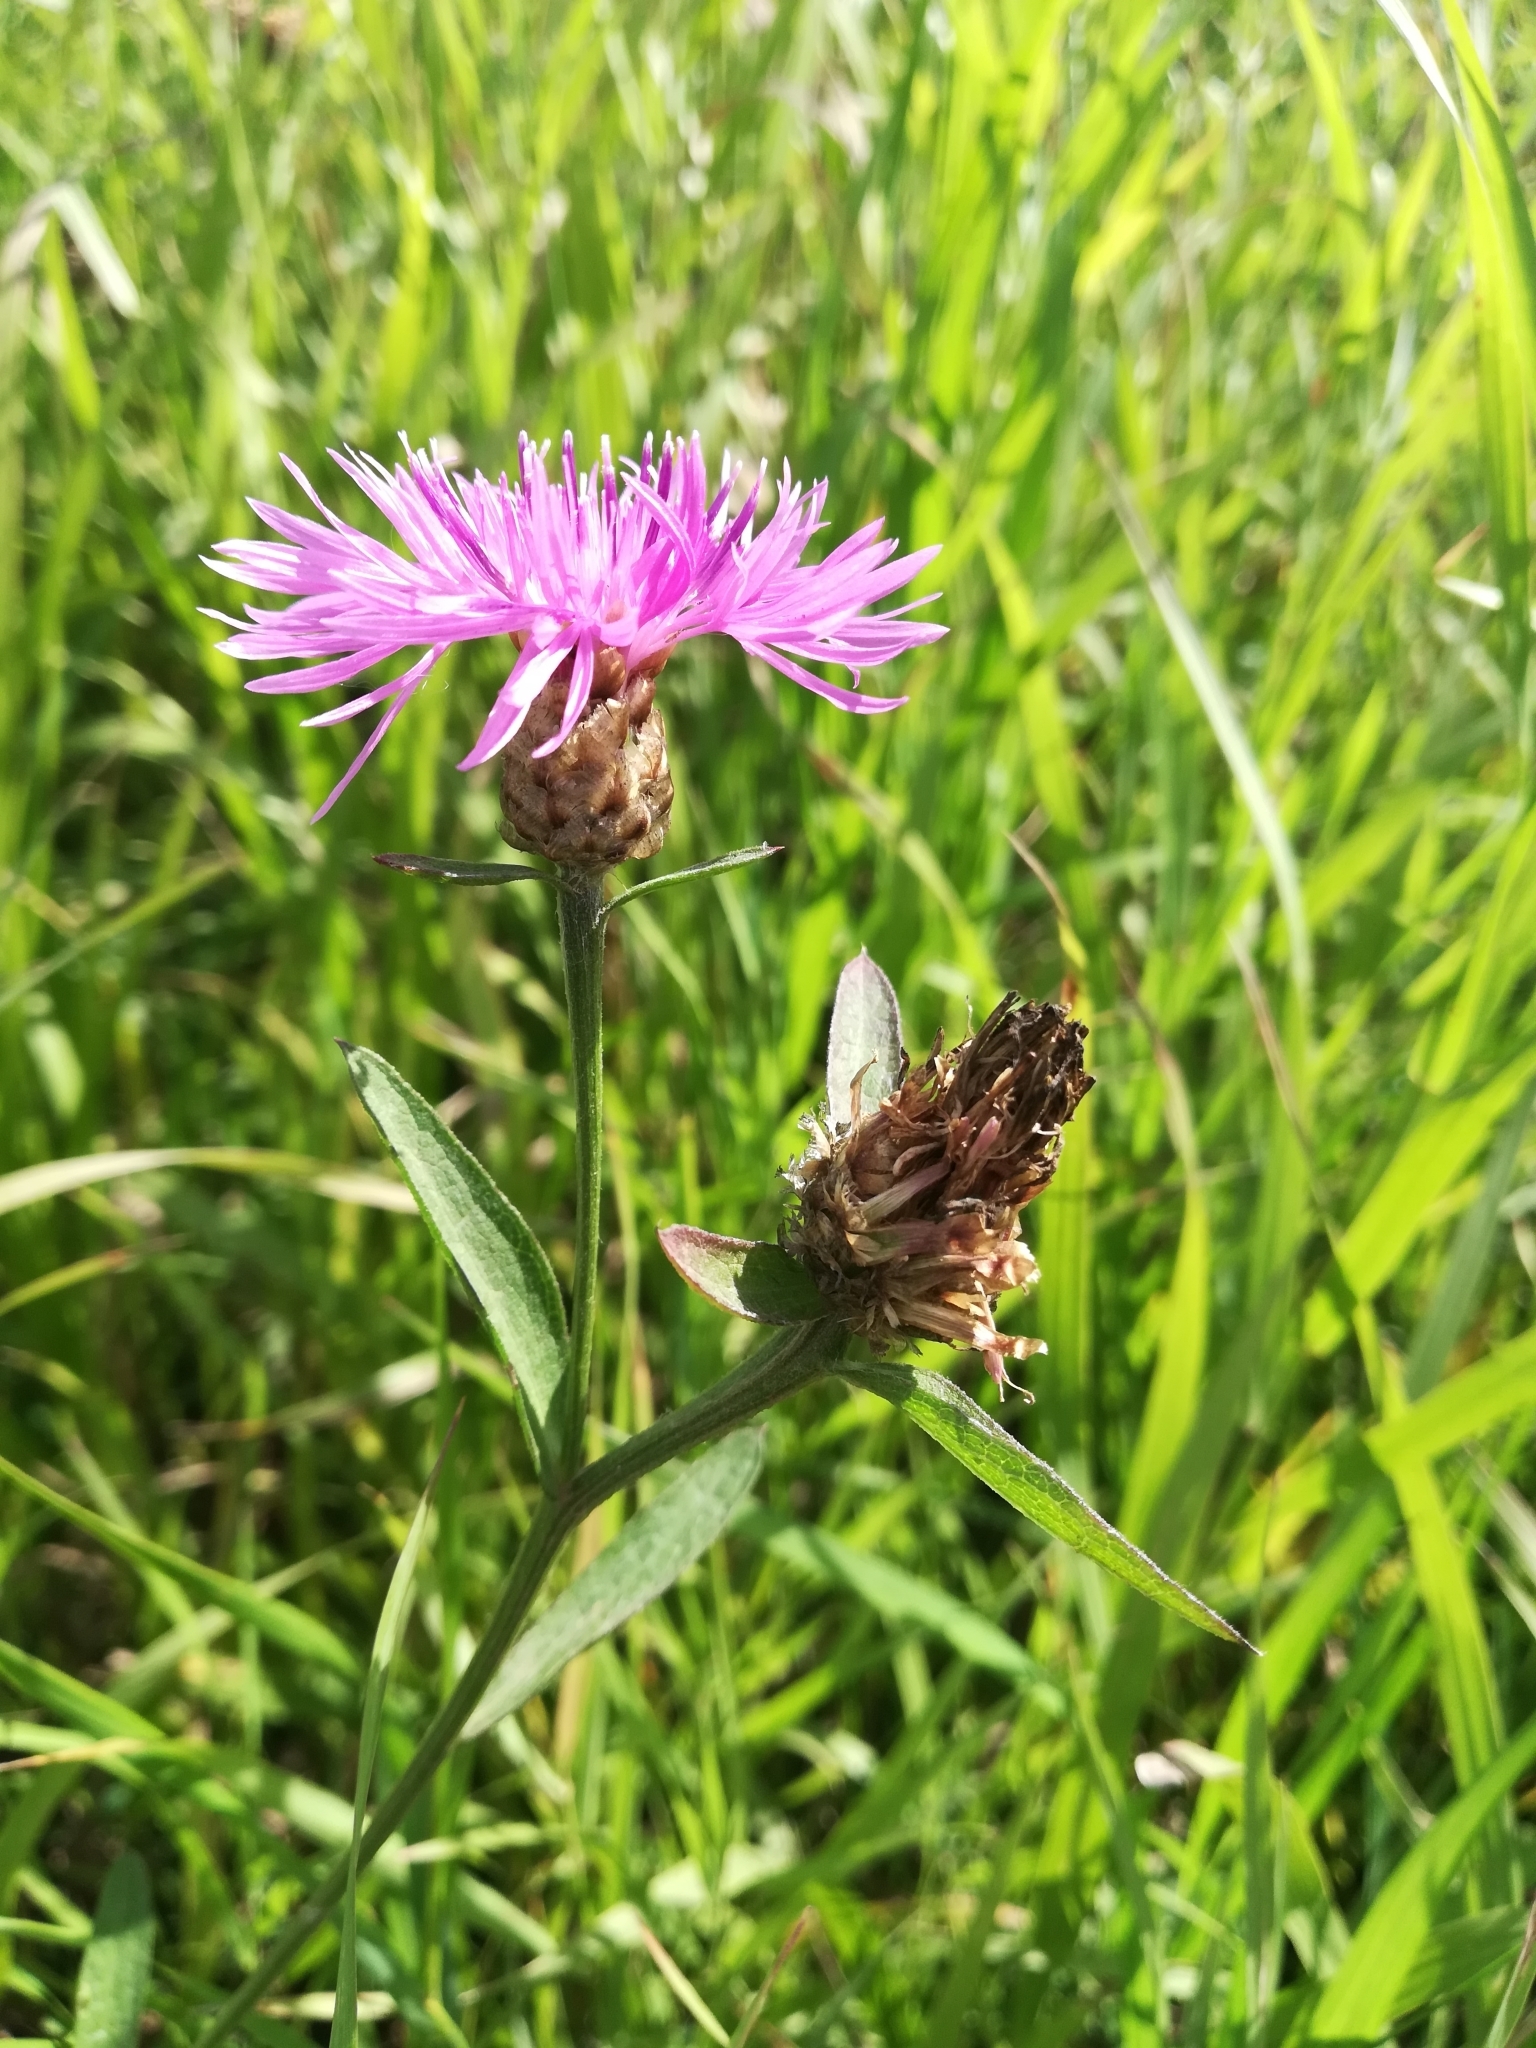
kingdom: Plantae
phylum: Tracheophyta
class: Magnoliopsida
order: Asterales
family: Asteraceae
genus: Centaurea
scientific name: Centaurea jacea
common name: Brown knapweed
